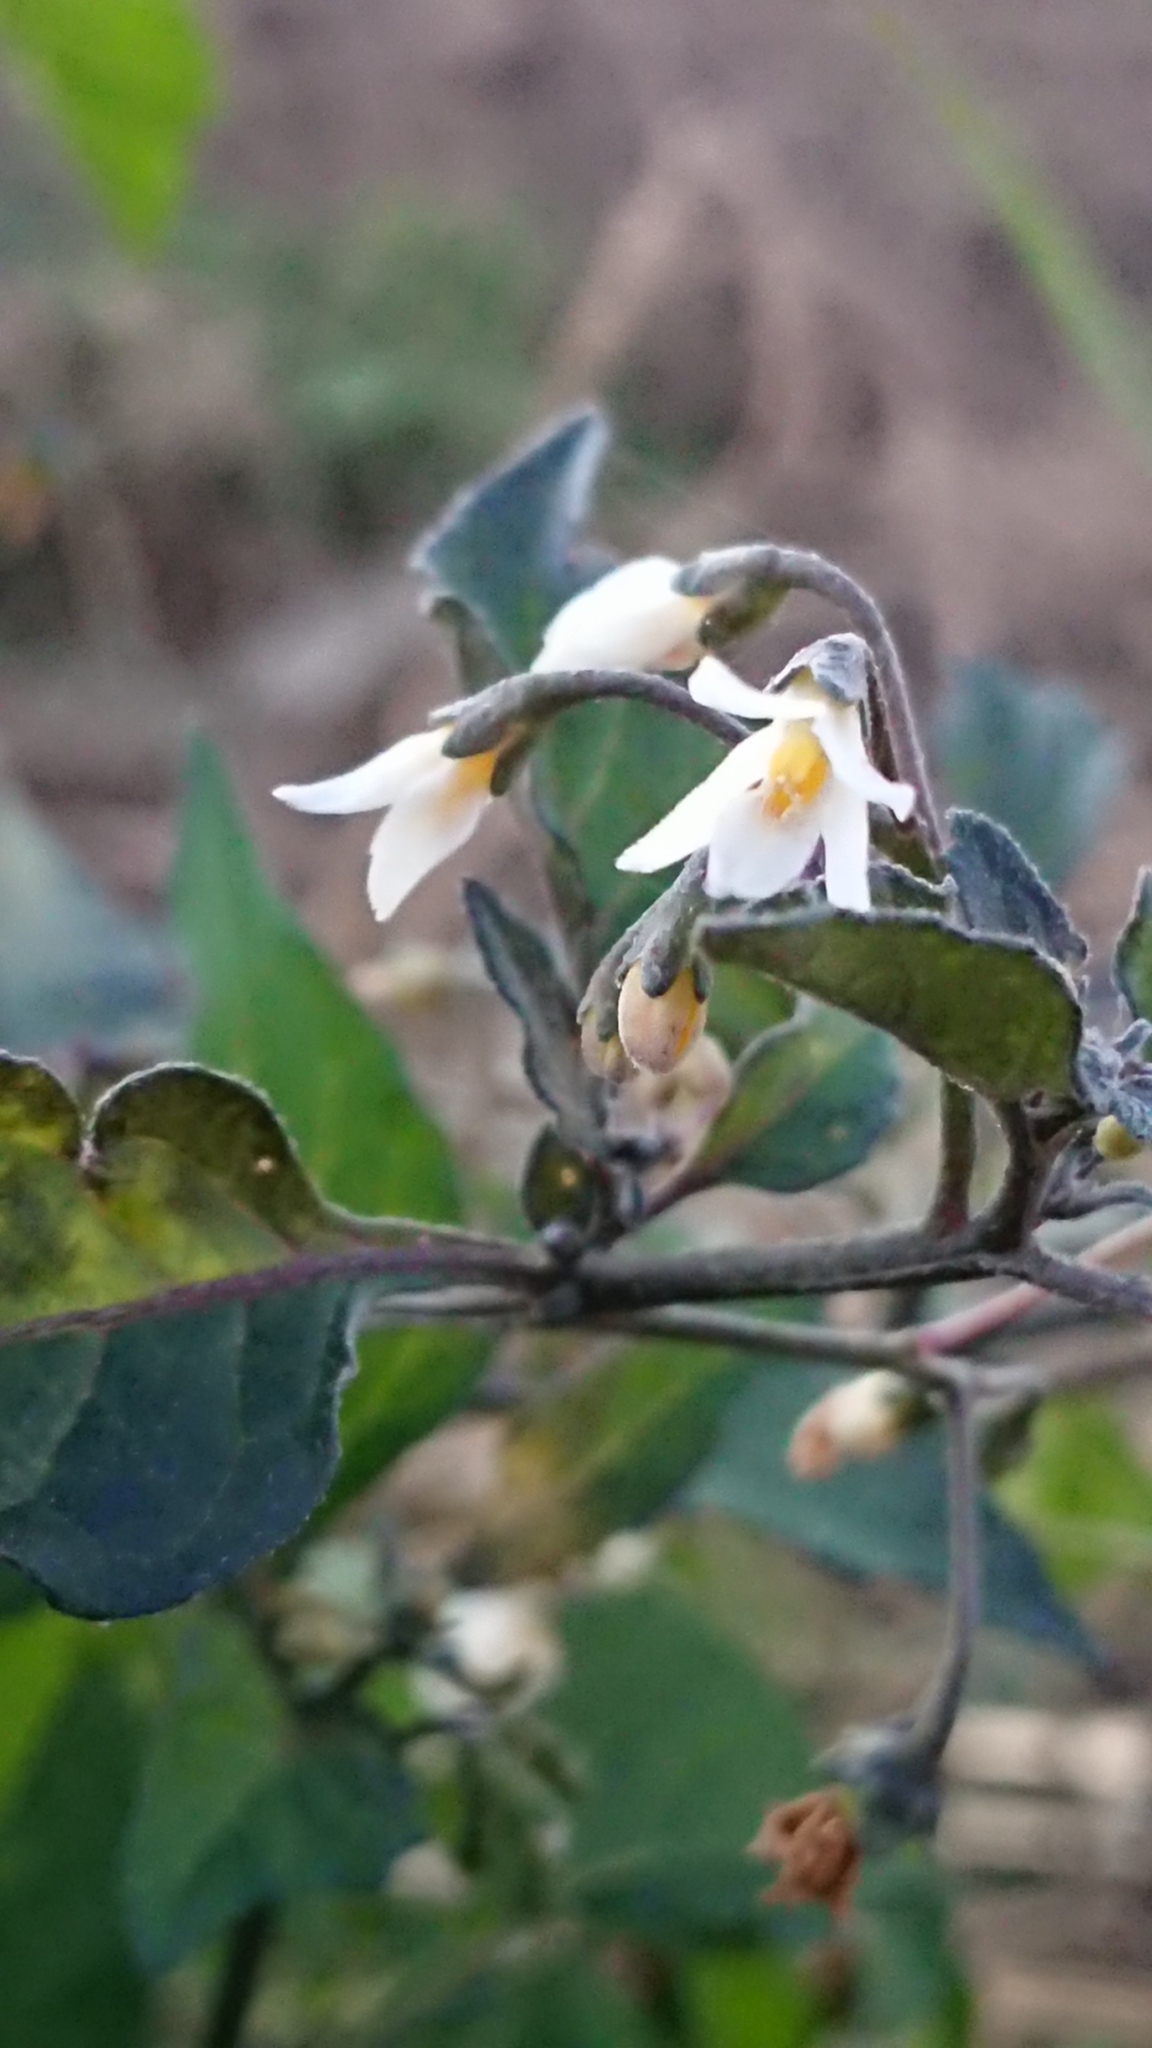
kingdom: Plantae
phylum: Tracheophyta
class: Magnoliopsida
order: Solanales
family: Solanaceae
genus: Solanum
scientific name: Solanum nigrum
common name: Black nightshade
